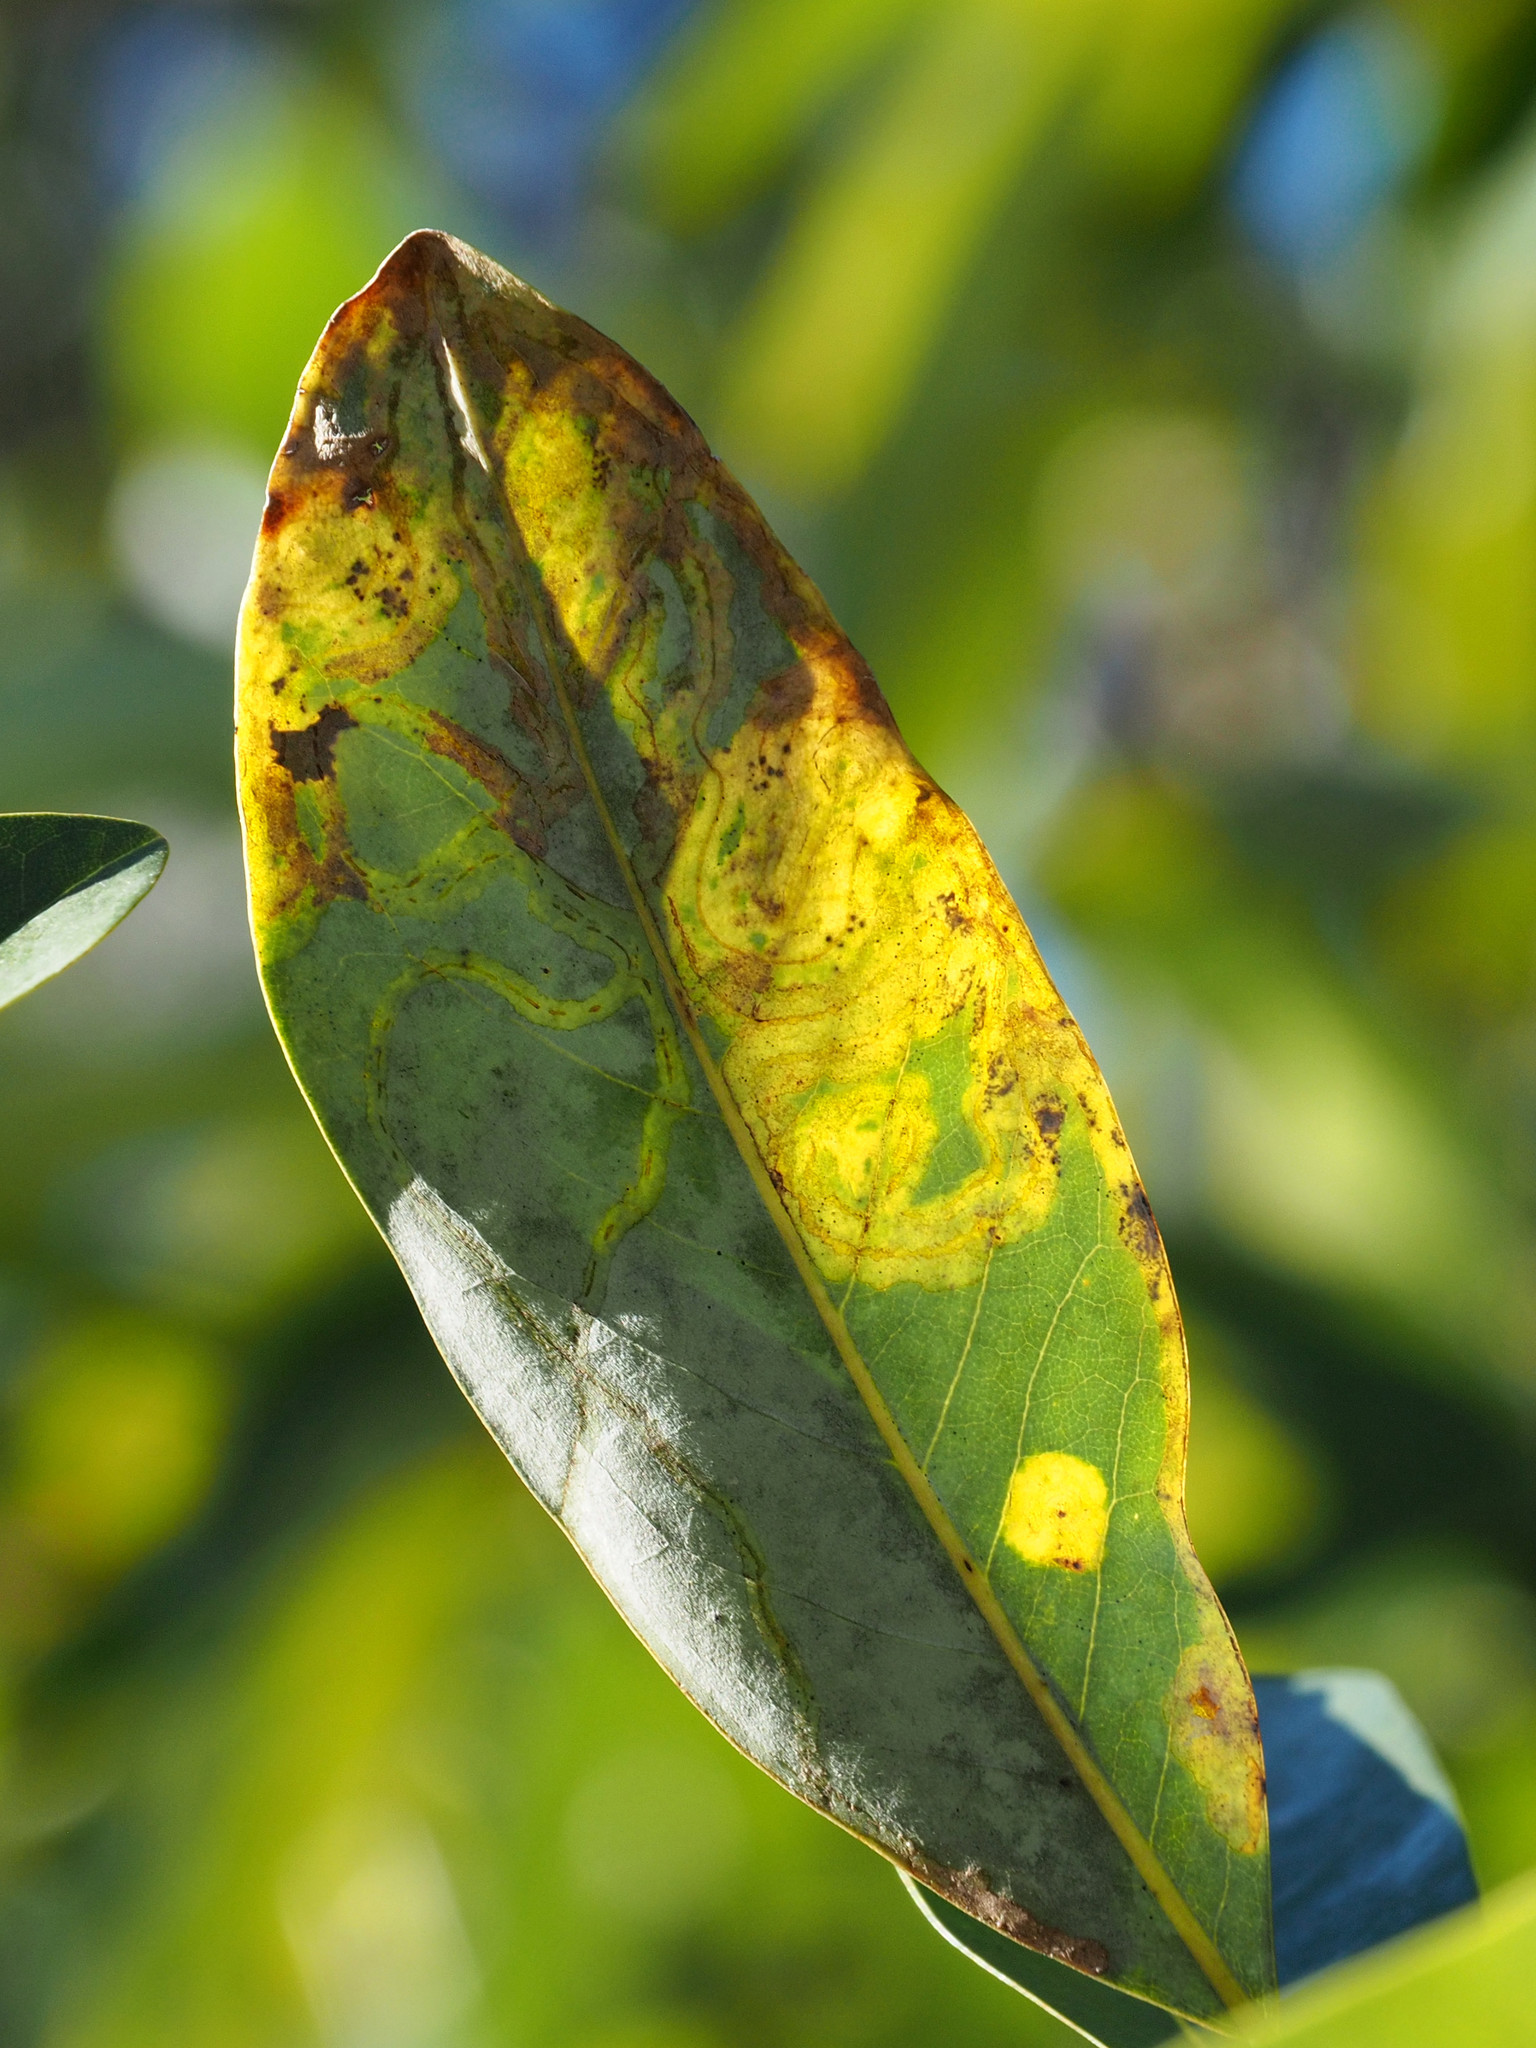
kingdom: Animalia
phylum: Arthropoda
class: Insecta
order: Lepidoptera
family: Gracillariidae
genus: Phyllocnistis
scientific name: Phyllocnistis liriodendronella
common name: Tulip tree leaf miner
